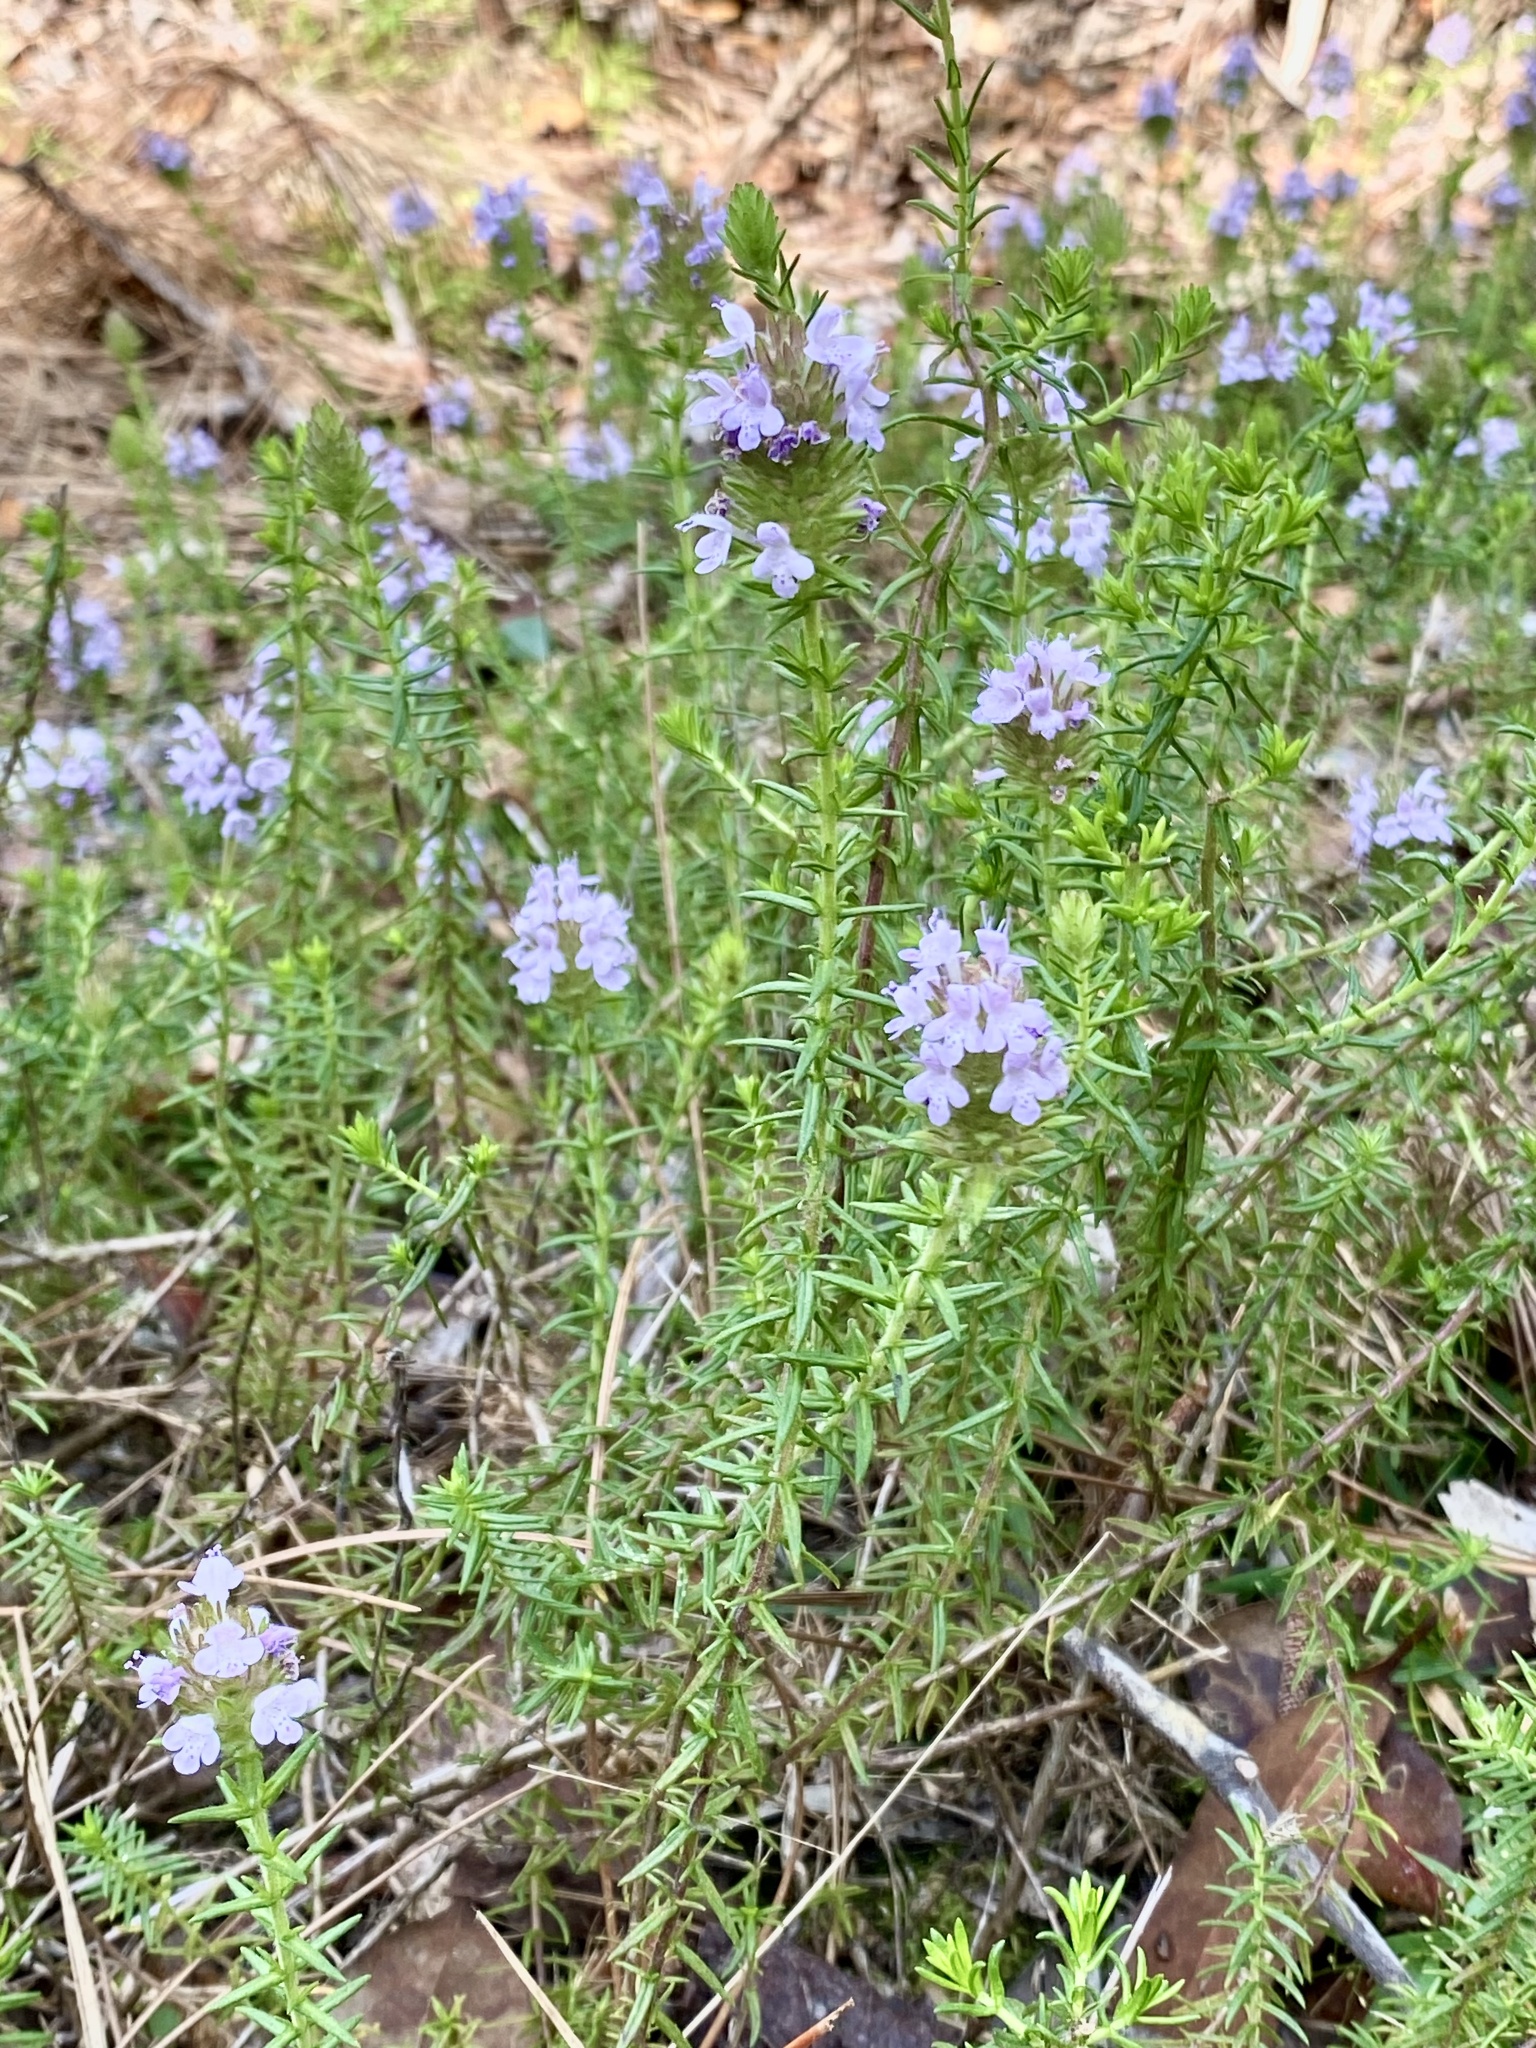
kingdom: Plantae
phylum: Tracheophyta
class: Magnoliopsida
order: Lamiales
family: Lamiaceae
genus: Piloblephis
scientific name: Piloblephis rigida
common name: Wild pennyroyal
